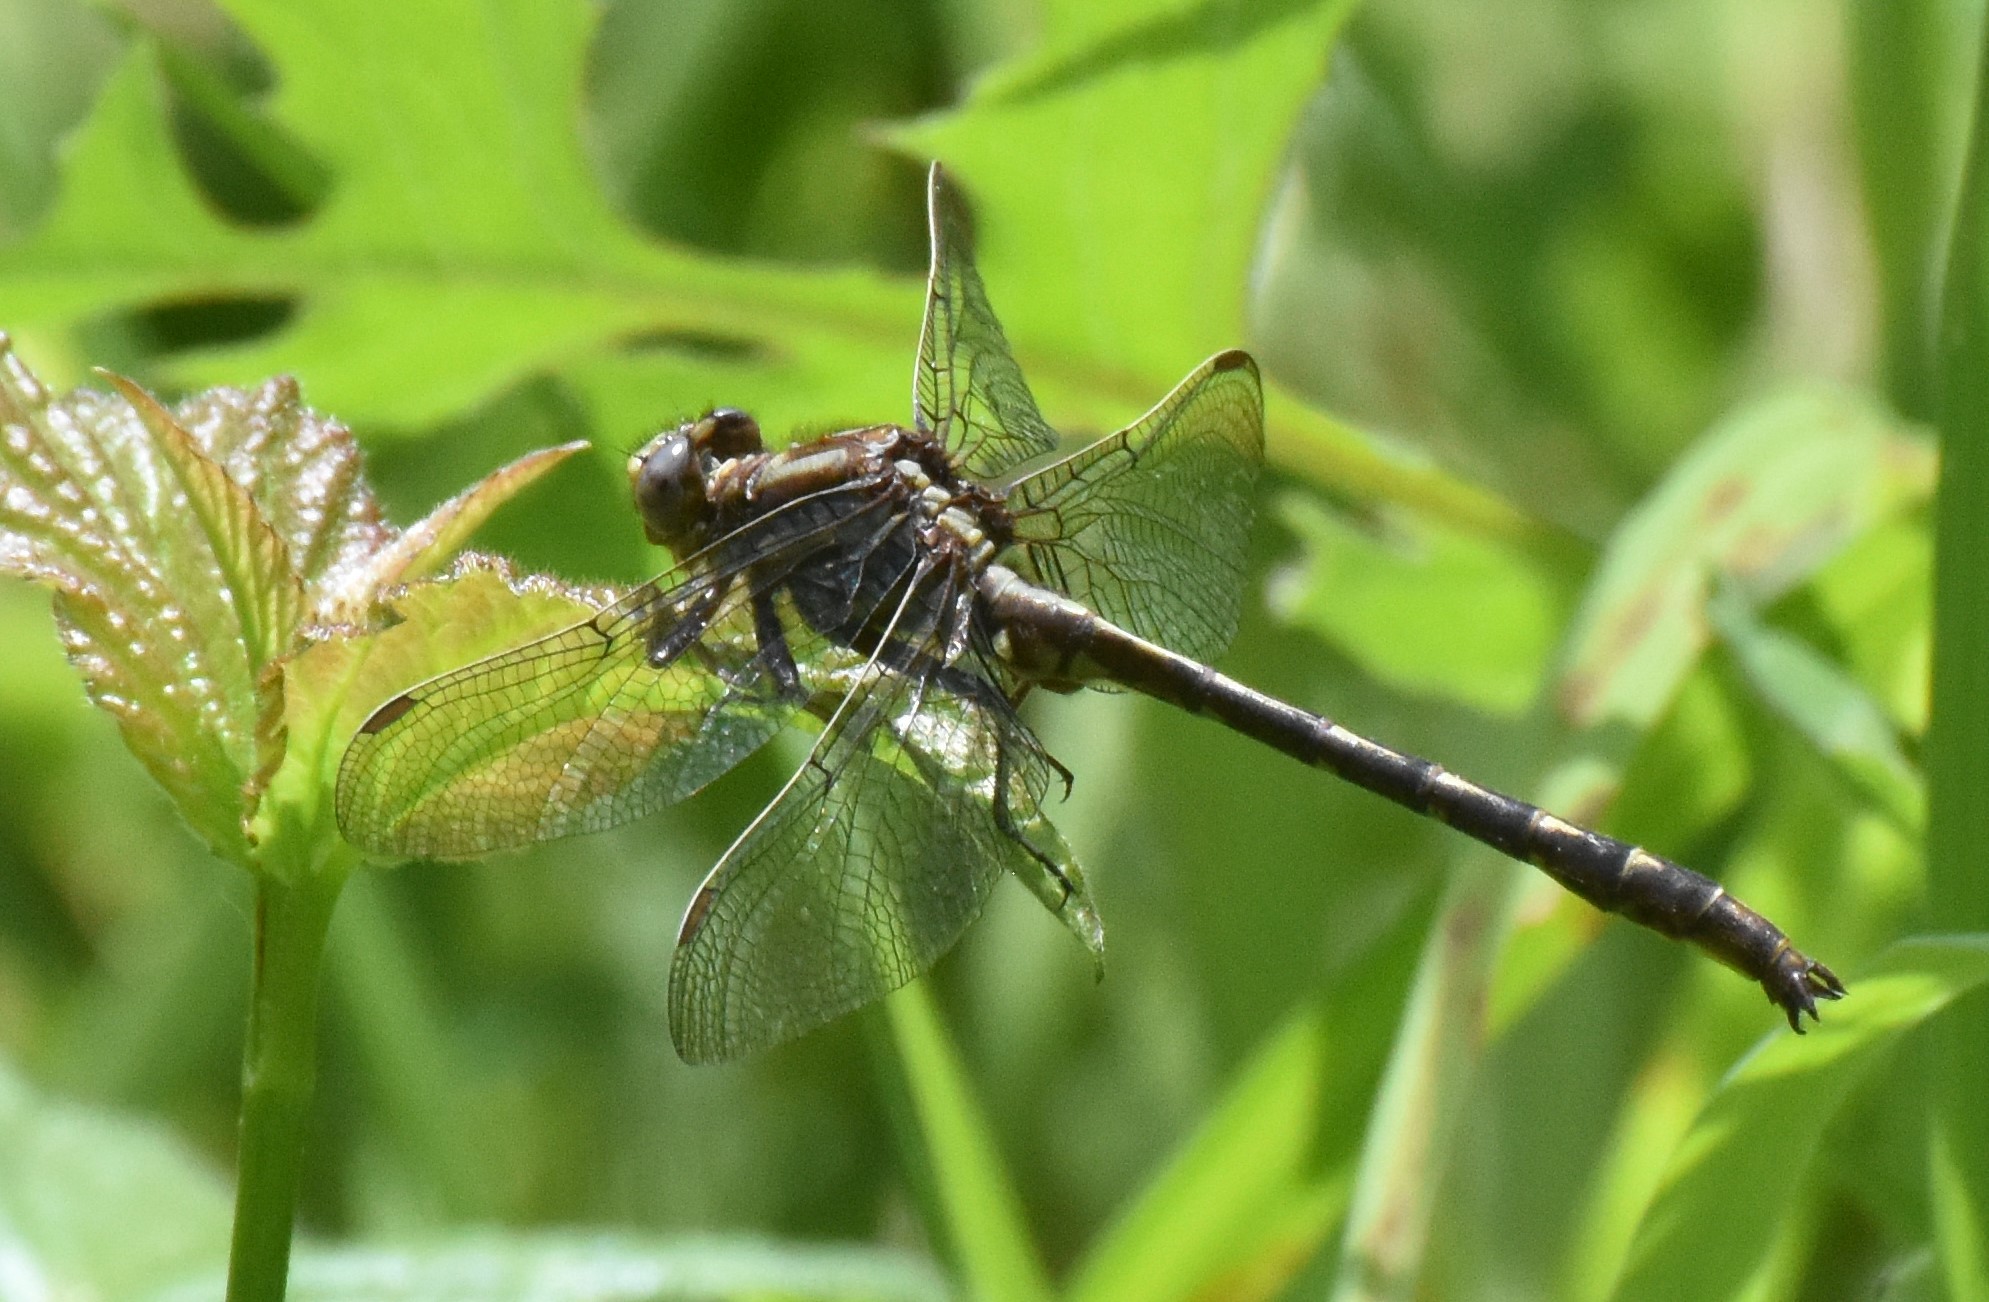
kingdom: Animalia
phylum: Arthropoda
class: Insecta
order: Odonata
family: Gomphidae
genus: Phanogomphus
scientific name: Phanogomphus lividus
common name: Ashy clubtail
